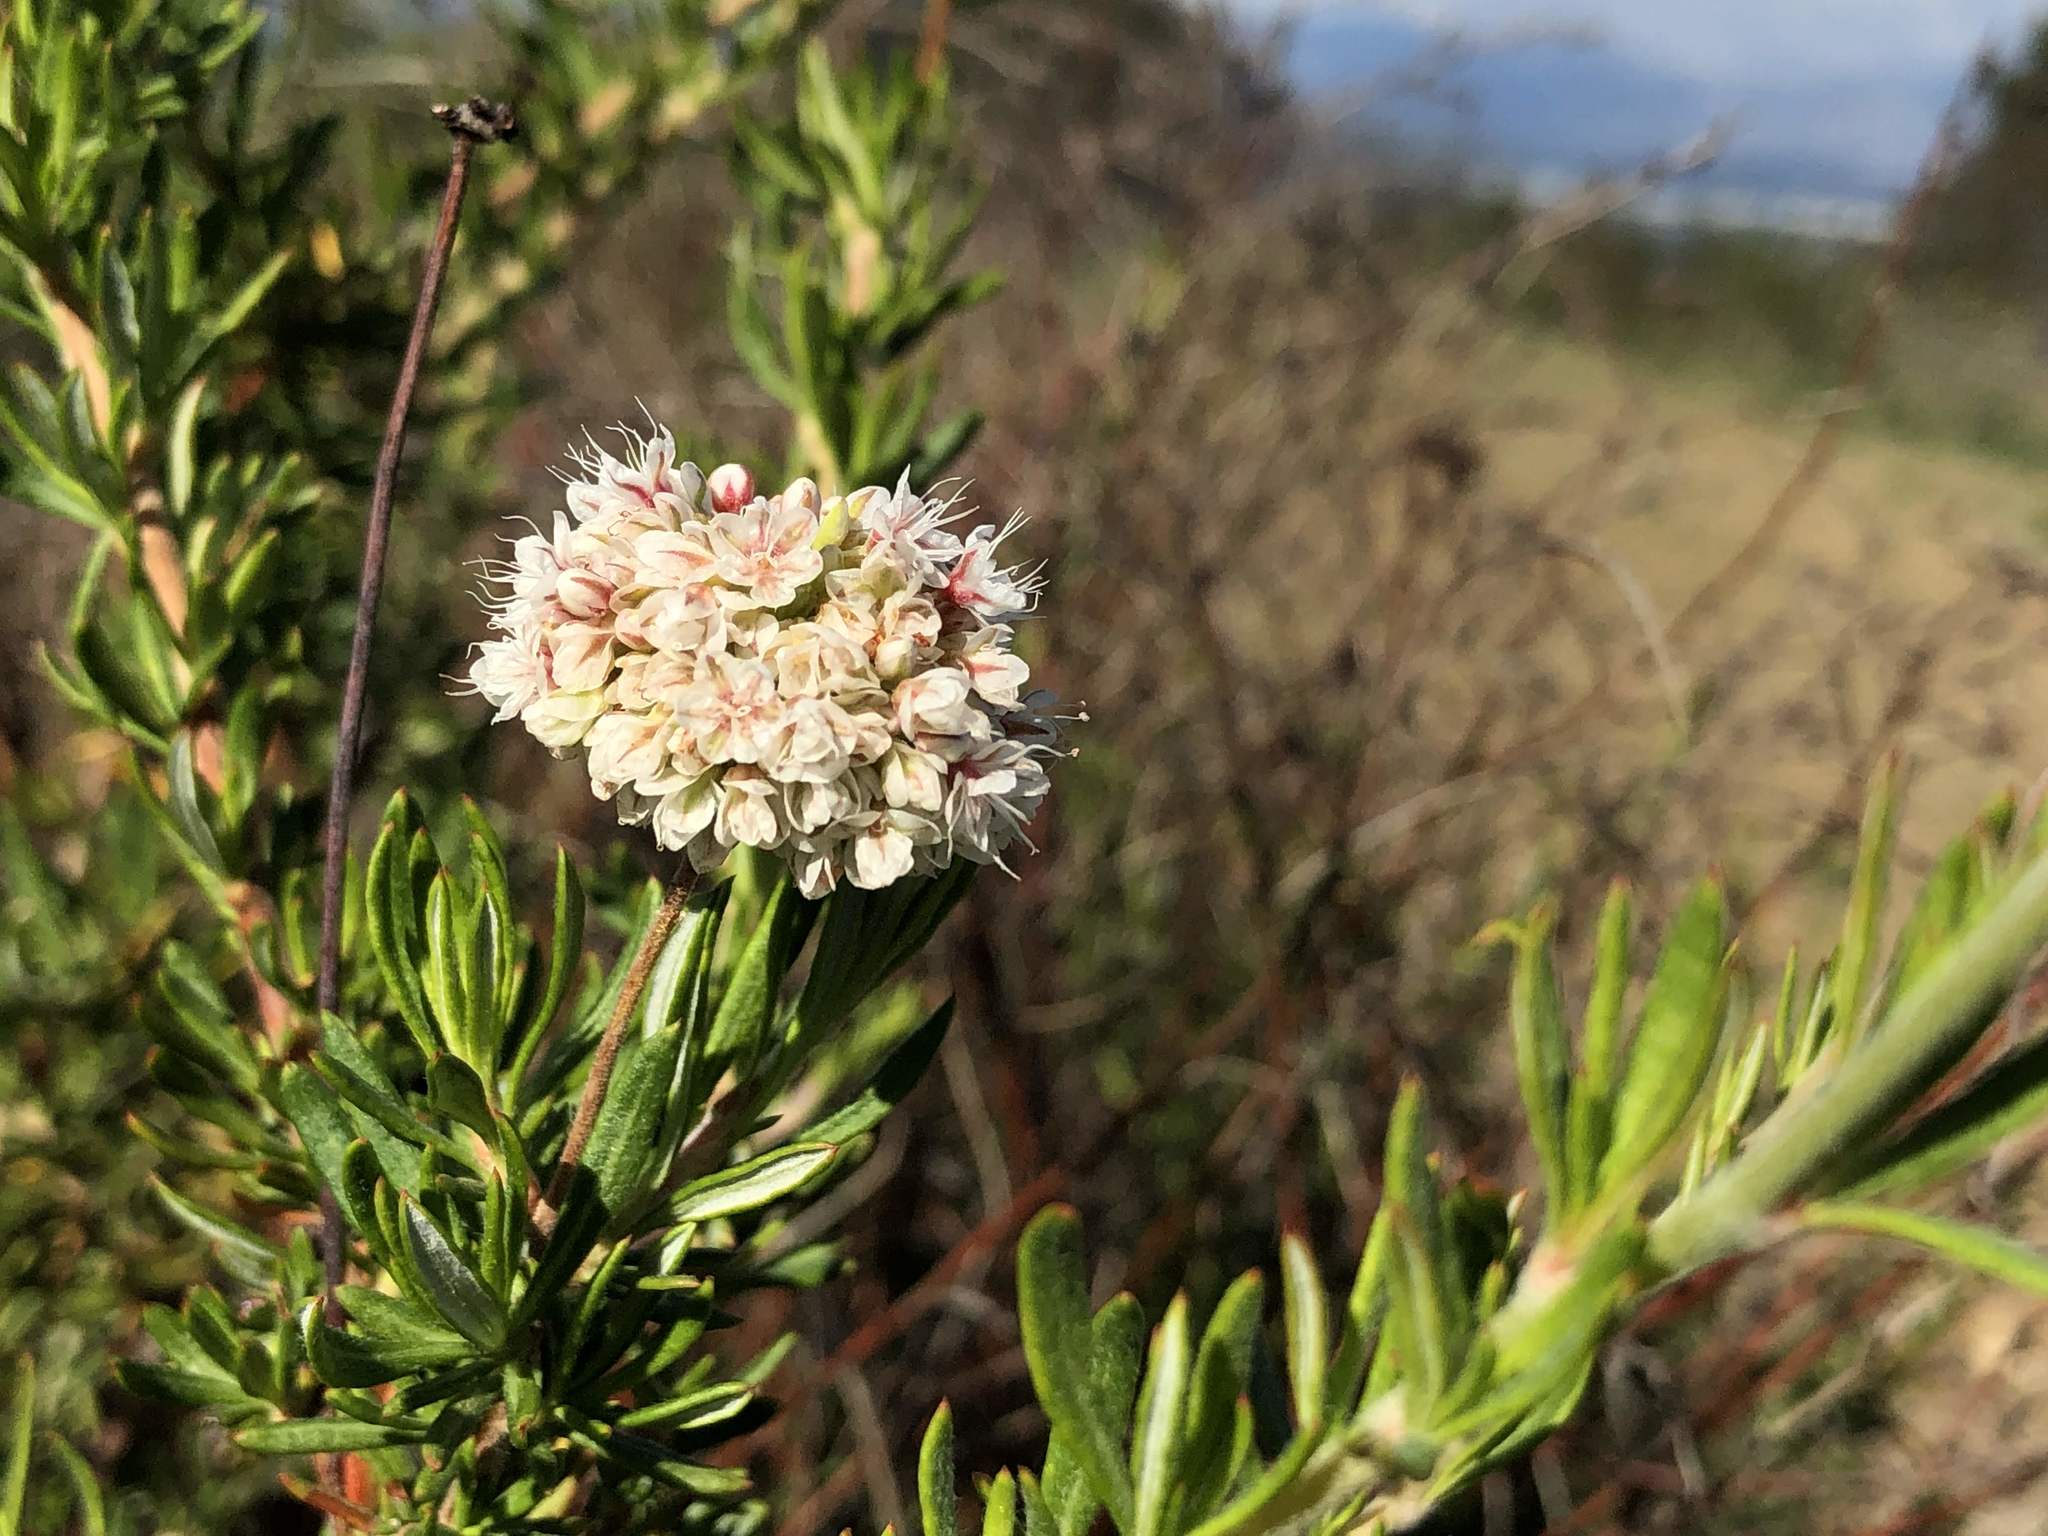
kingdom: Plantae
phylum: Tracheophyta
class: Magnoliopsida
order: Caryophyllales
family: Polygonaceae
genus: Eriogonum
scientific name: Eriogonum fasciculatum
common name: California wild buckwheat
